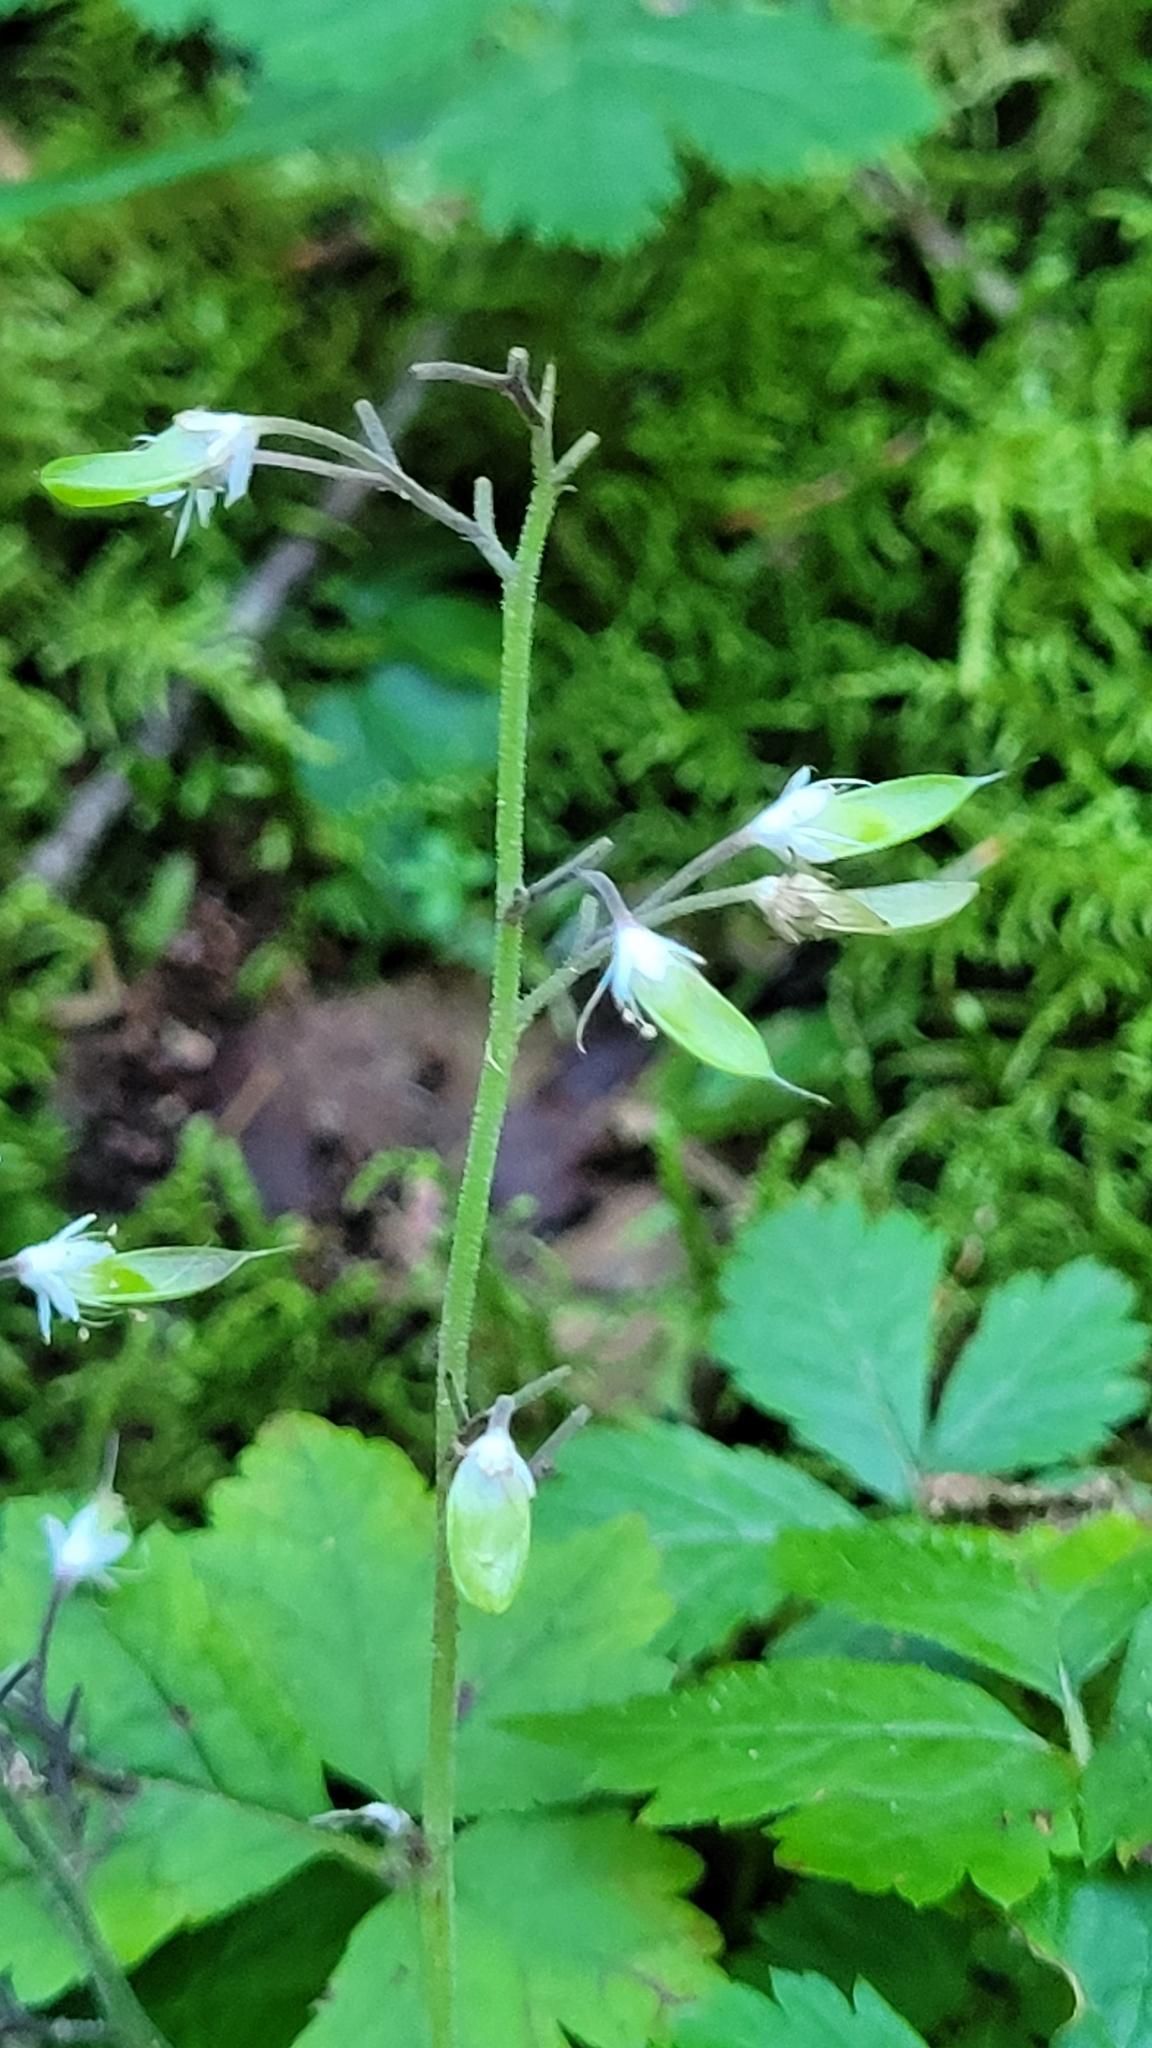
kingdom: Plantae
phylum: Tracheophyta
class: Magnoliopsida
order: Saxifragales
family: Saxifragaceae
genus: Tiarella
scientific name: Tiarella trifoliata
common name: Sugar-scoop
